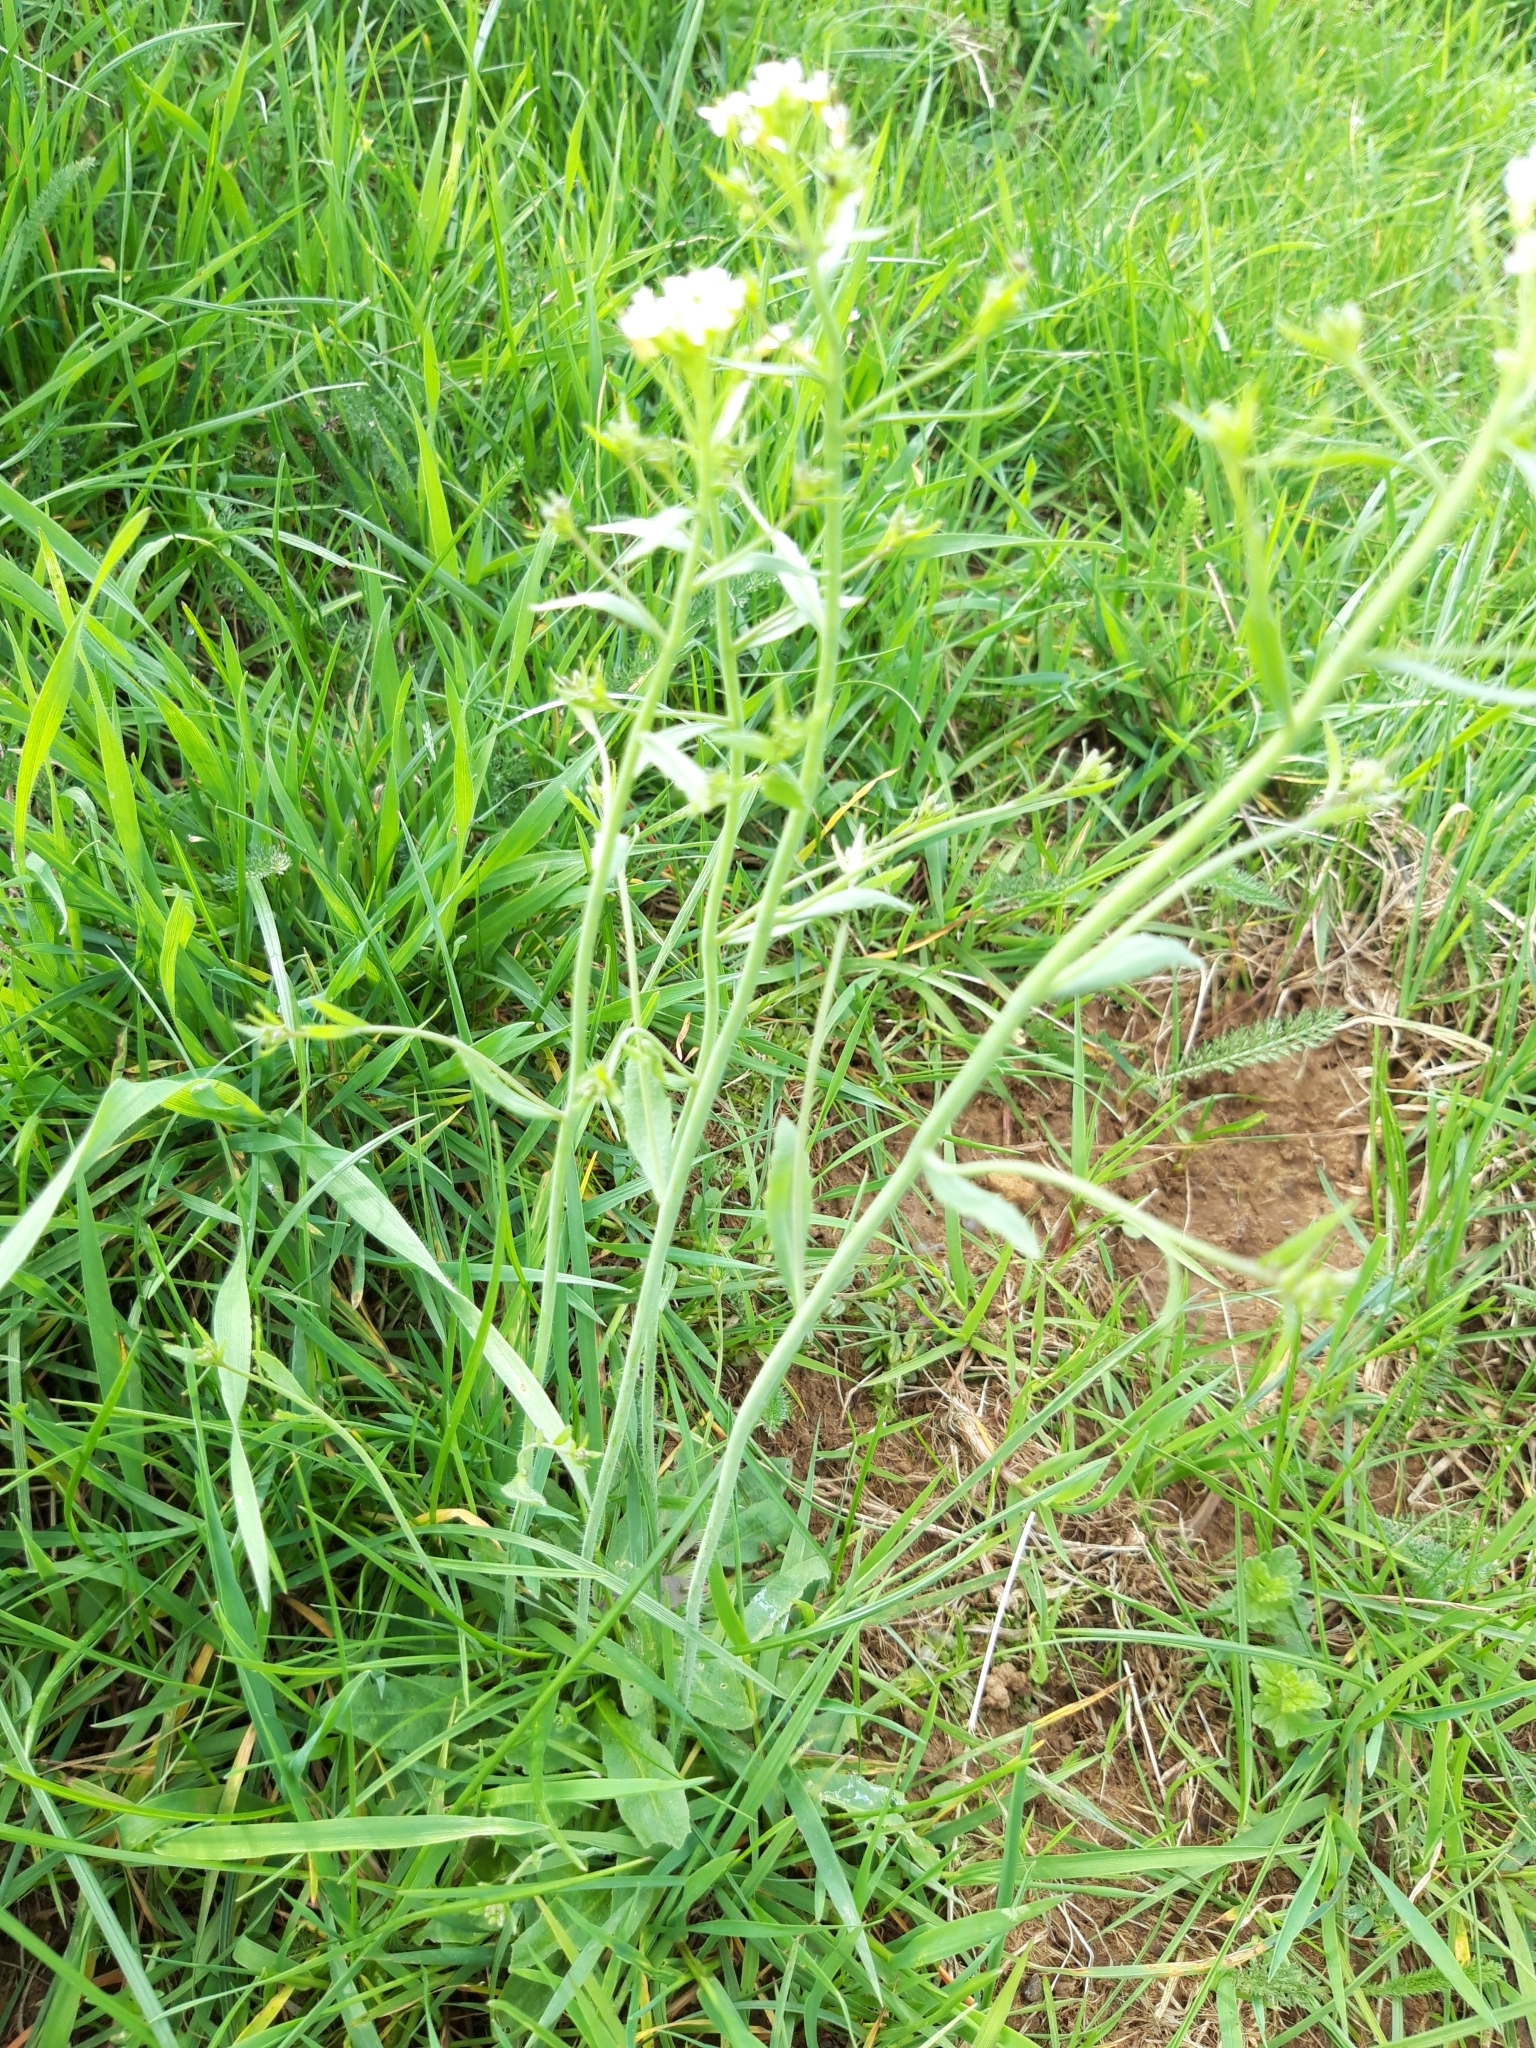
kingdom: Plantae
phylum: Tracheophyta
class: Magnoliopsida
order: Brassicales
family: Brassicaceae
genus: Arabidopsis
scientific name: Arabidopsis thaliana
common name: Thale cress
